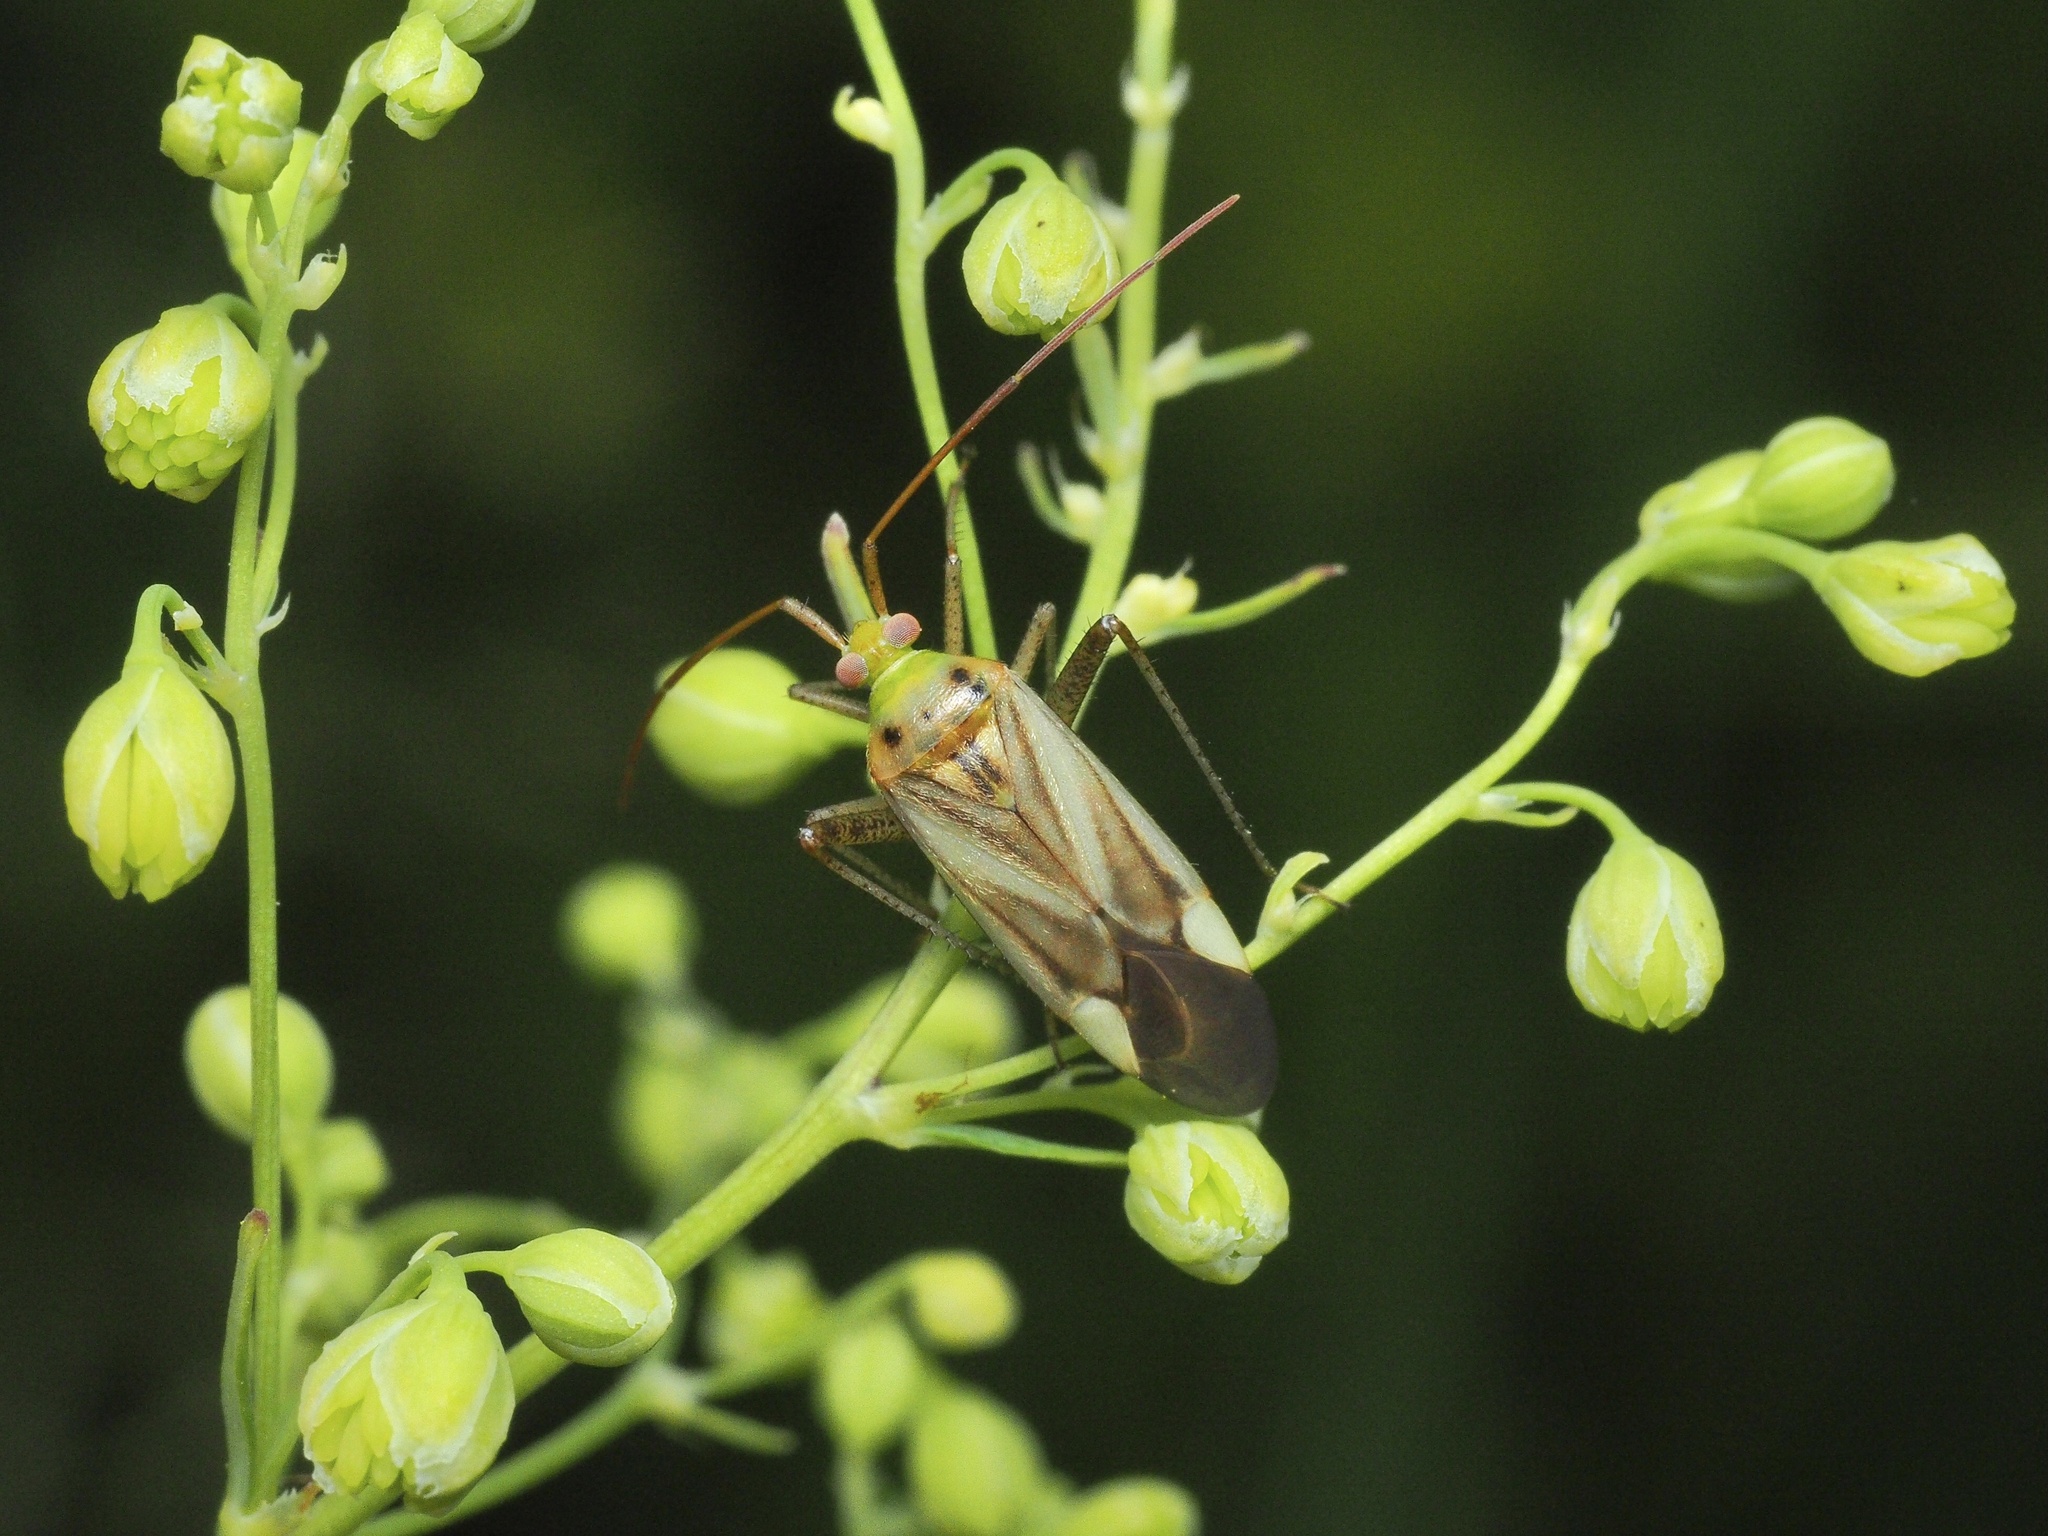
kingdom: Animalia
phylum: Arthropoda
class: Insecta
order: Hemiptera
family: Miridae
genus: Adelphocoris
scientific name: Adelphocoris lineolatus
